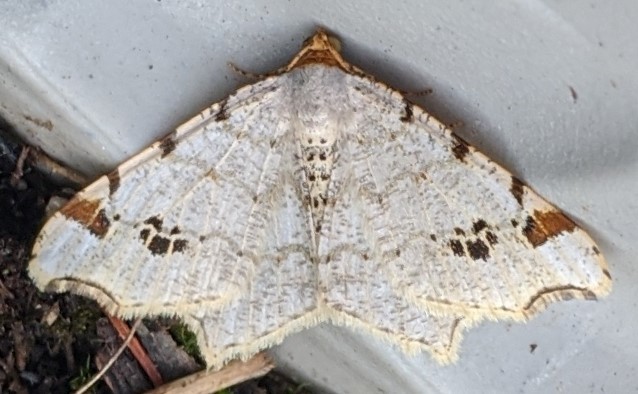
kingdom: Animalia
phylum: Arthropoda
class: Insecta
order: Lepidoptera
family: Geometridae
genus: Macaria
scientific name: Macaria ulsterata
